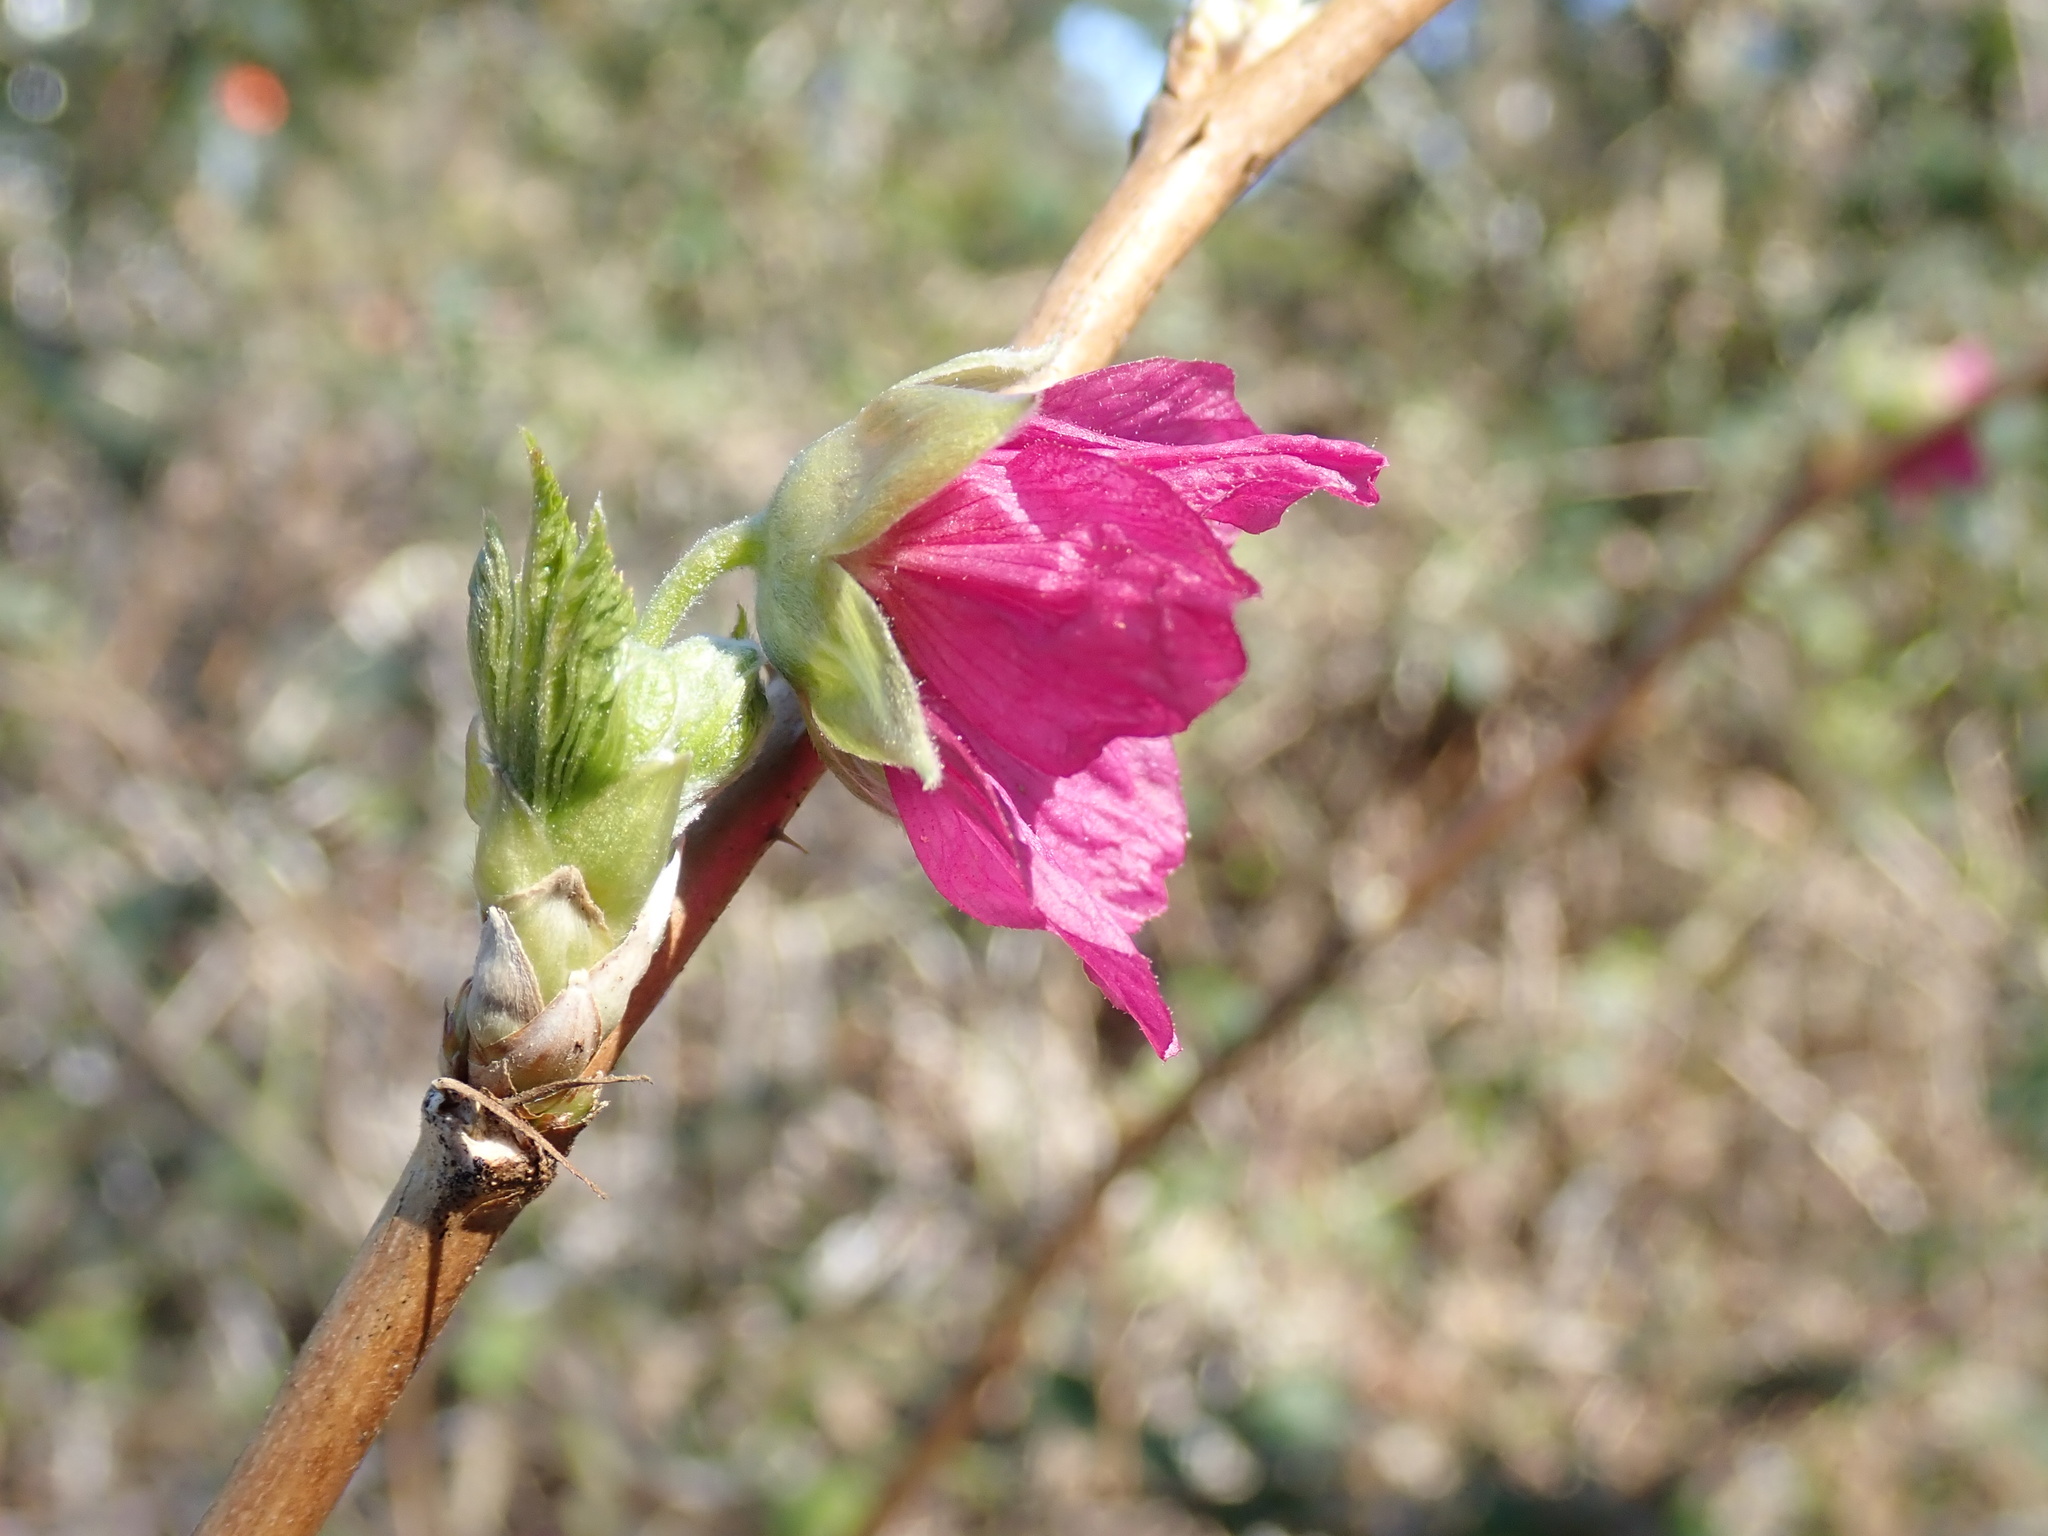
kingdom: Plantae
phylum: Tracheophyta
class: Magnoliopsida
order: Rosales
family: Rosaceae
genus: Rubus
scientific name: Rubus spectabilis
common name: Salmonberry
